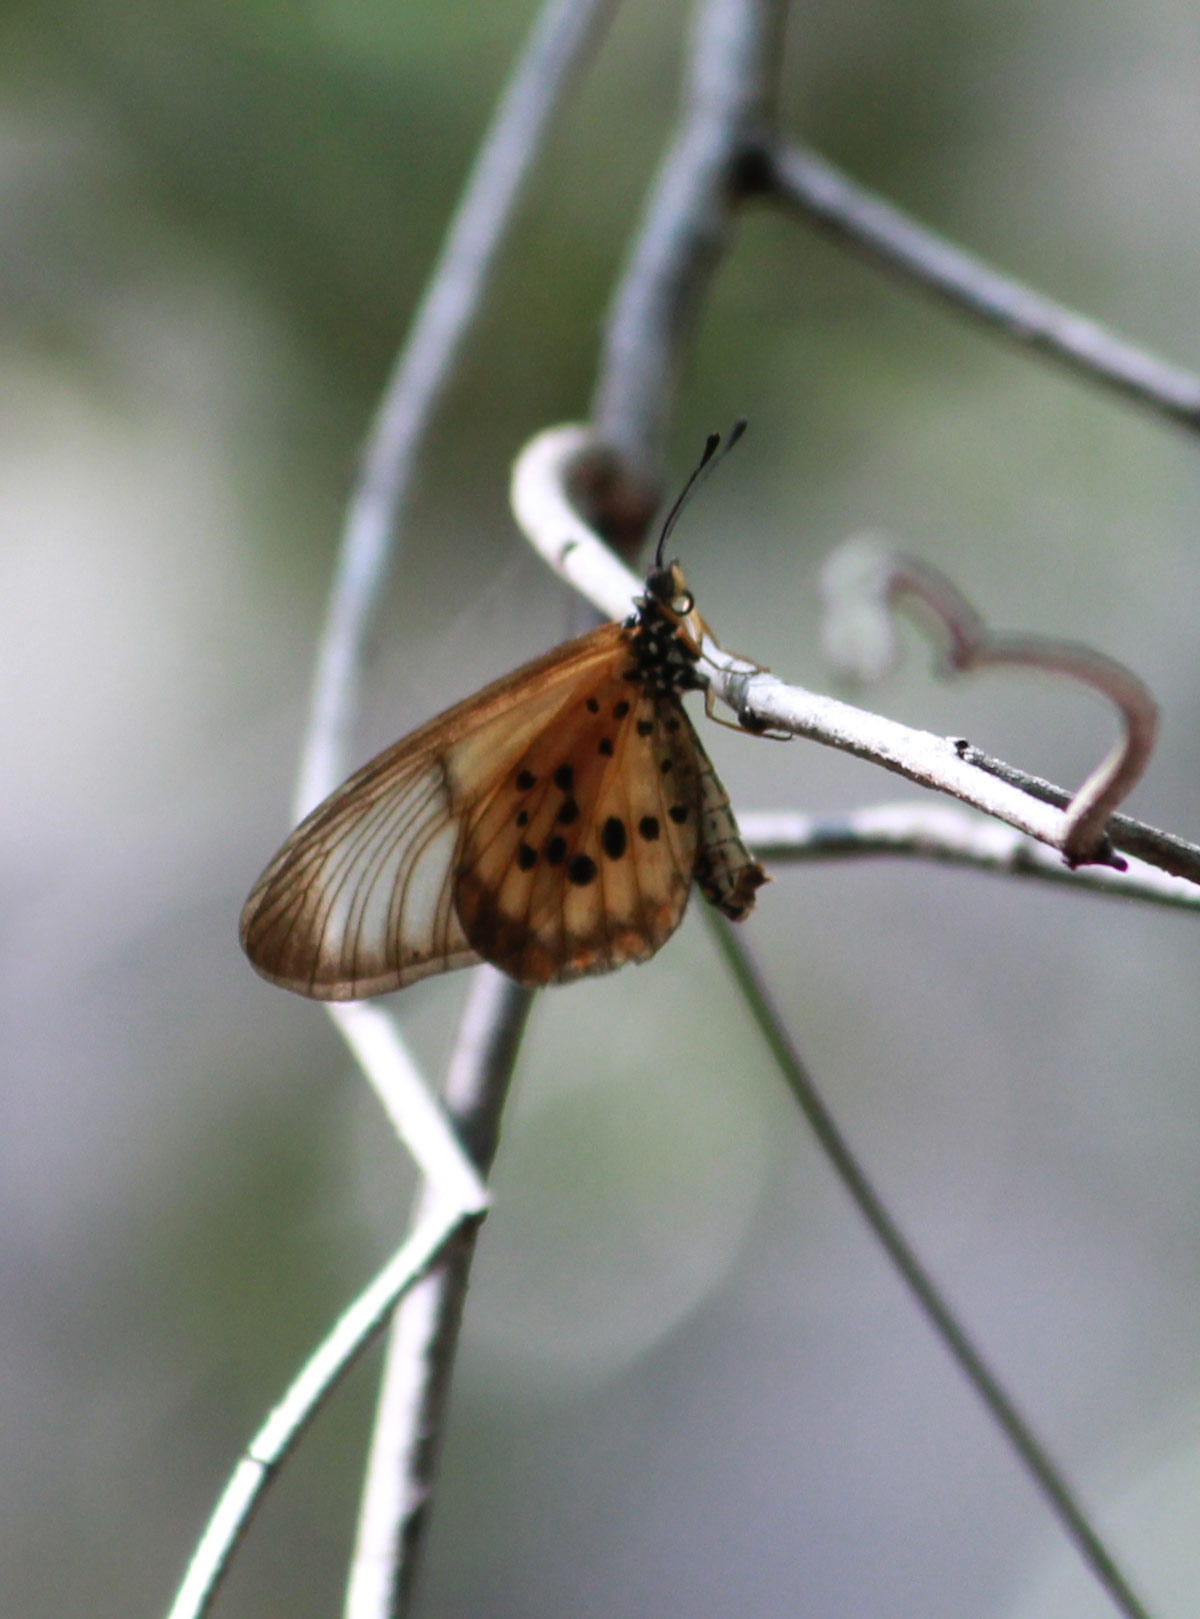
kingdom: Animalia
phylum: Arthropoda
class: Insecta
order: Lepidoptera
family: Nymphalidae
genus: Acraea
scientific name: Acraea Telchinia burni
